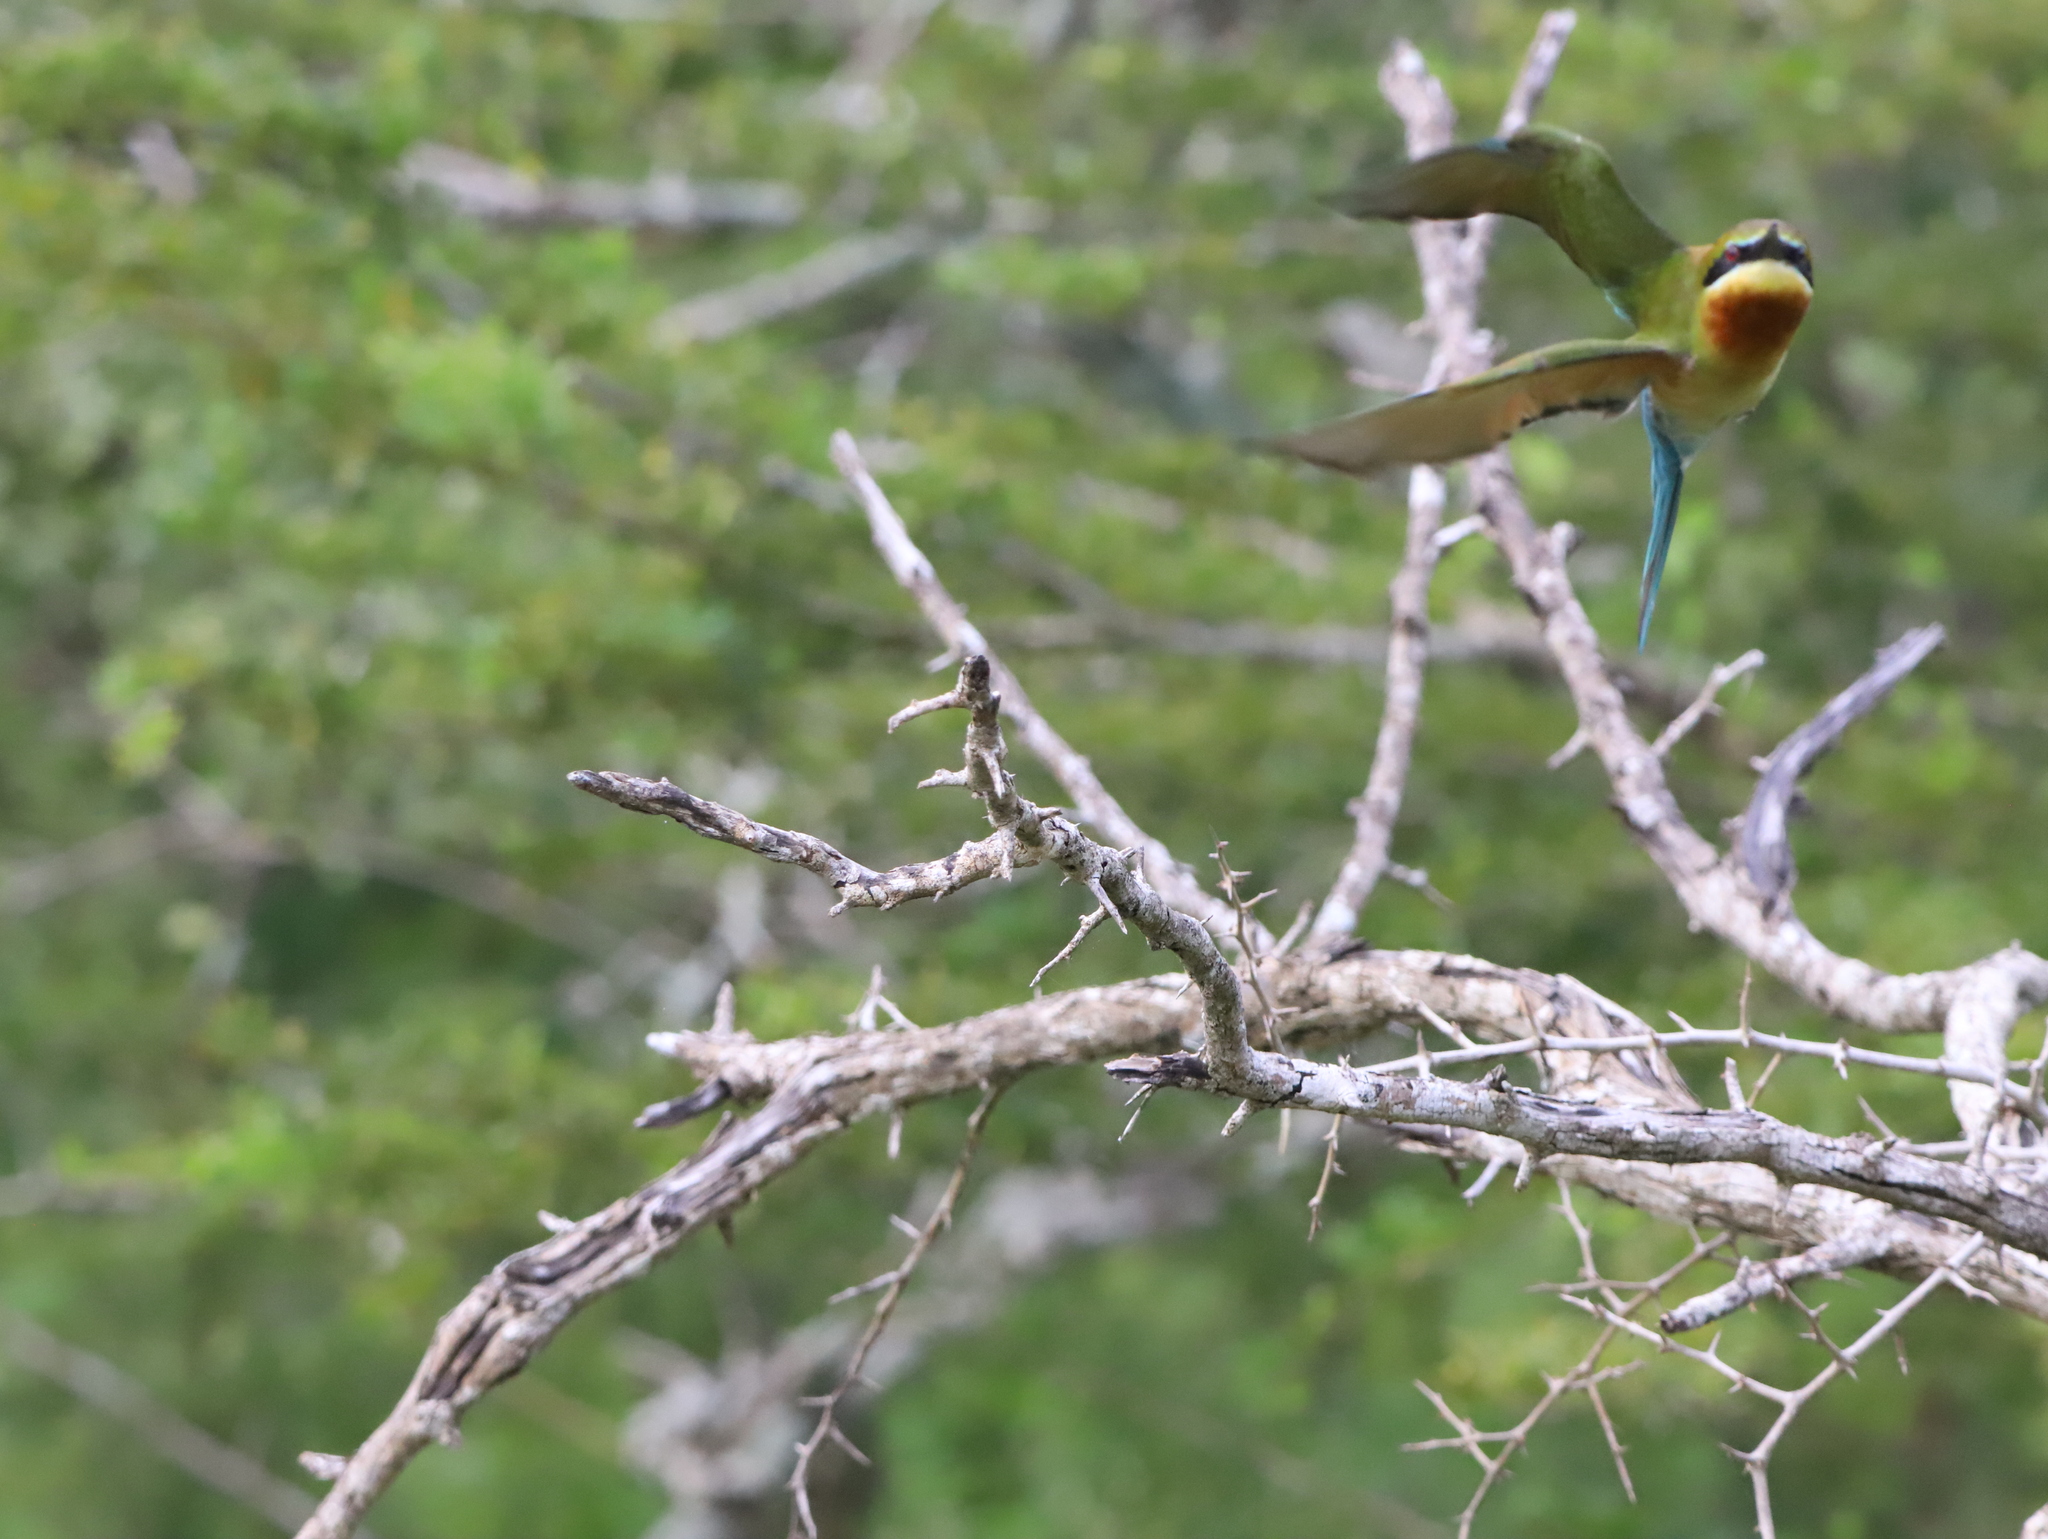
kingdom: Animalia
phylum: Chordata
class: Aves
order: Coraciiformes
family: Meropidae
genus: Merops
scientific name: Merops philippinus
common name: Blue-tailed bee-eater
